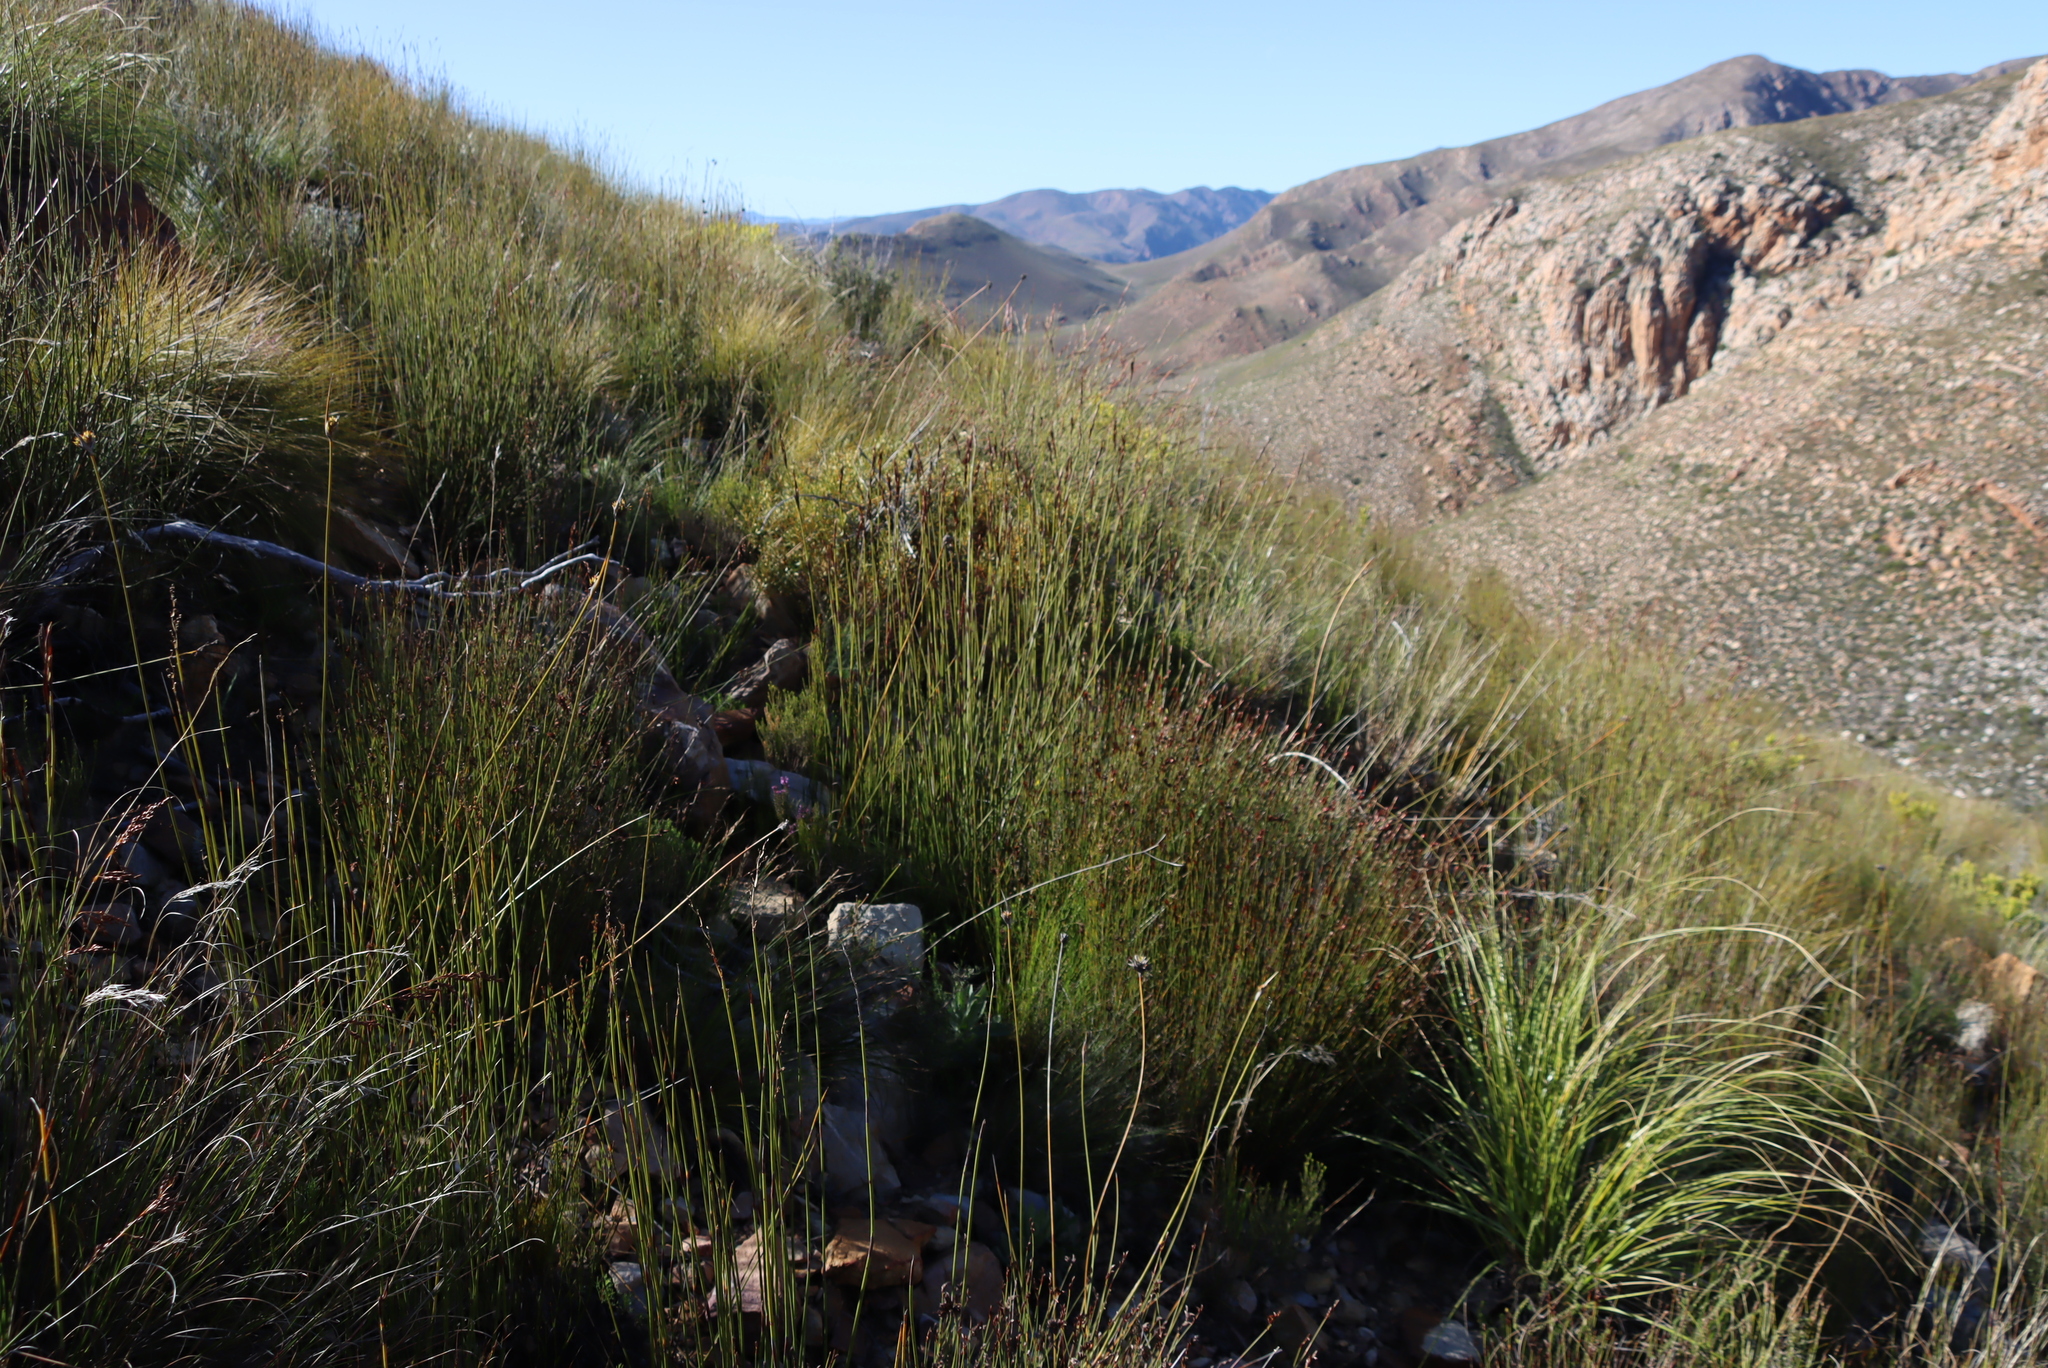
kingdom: Plantae
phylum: Tracheophyta
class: Liliopsida
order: Poales
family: Restionaceae
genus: Cannomois
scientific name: Cannomois scirpoides
